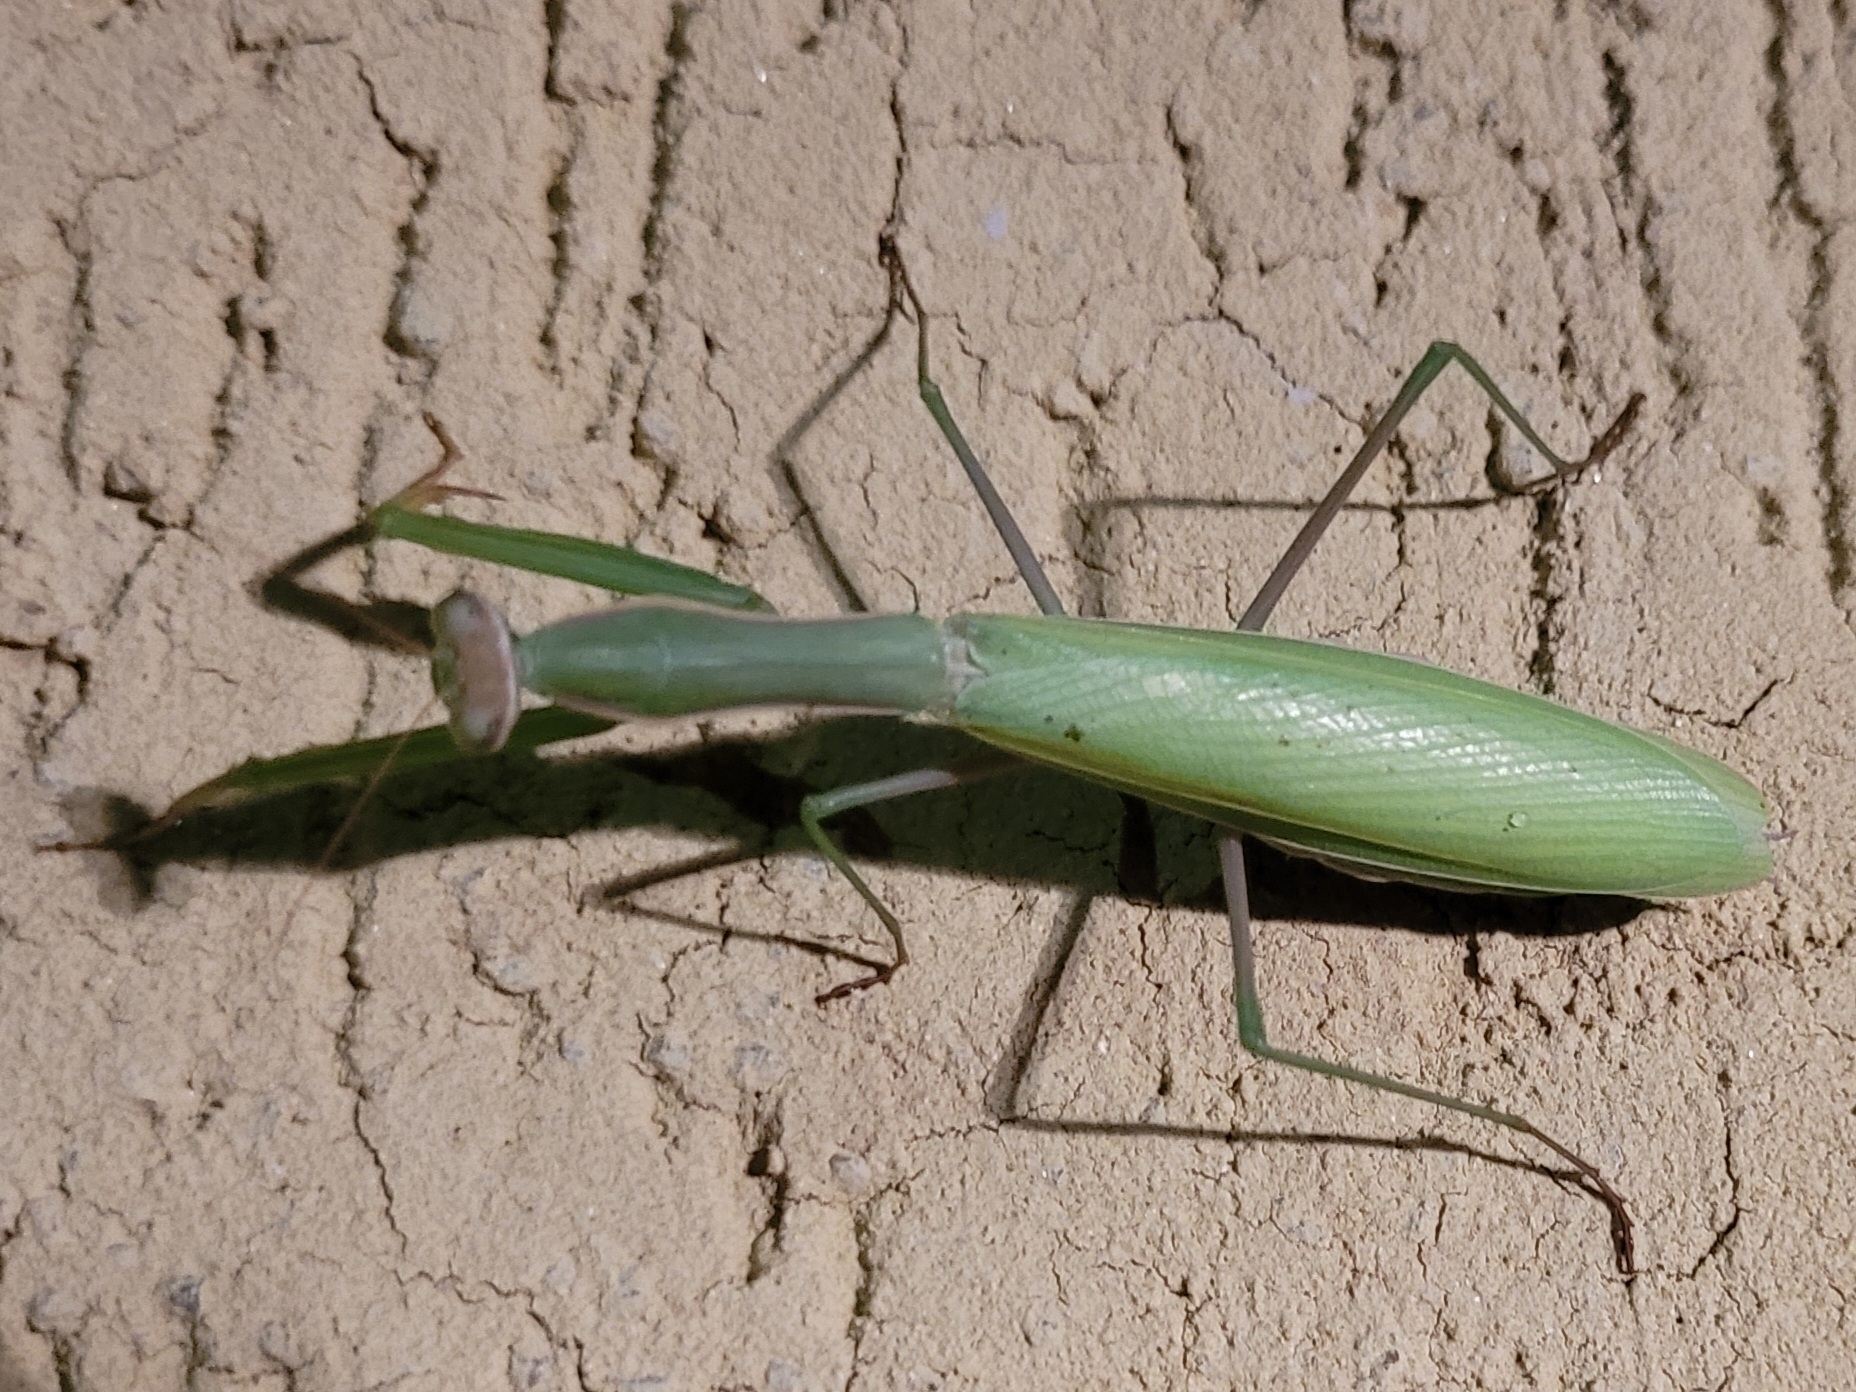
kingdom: Animalia
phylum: Arthropoda
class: Insecta
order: Mantodea
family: Mantidae
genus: Mantis
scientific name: Mantis religiosa
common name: Praying mantis
